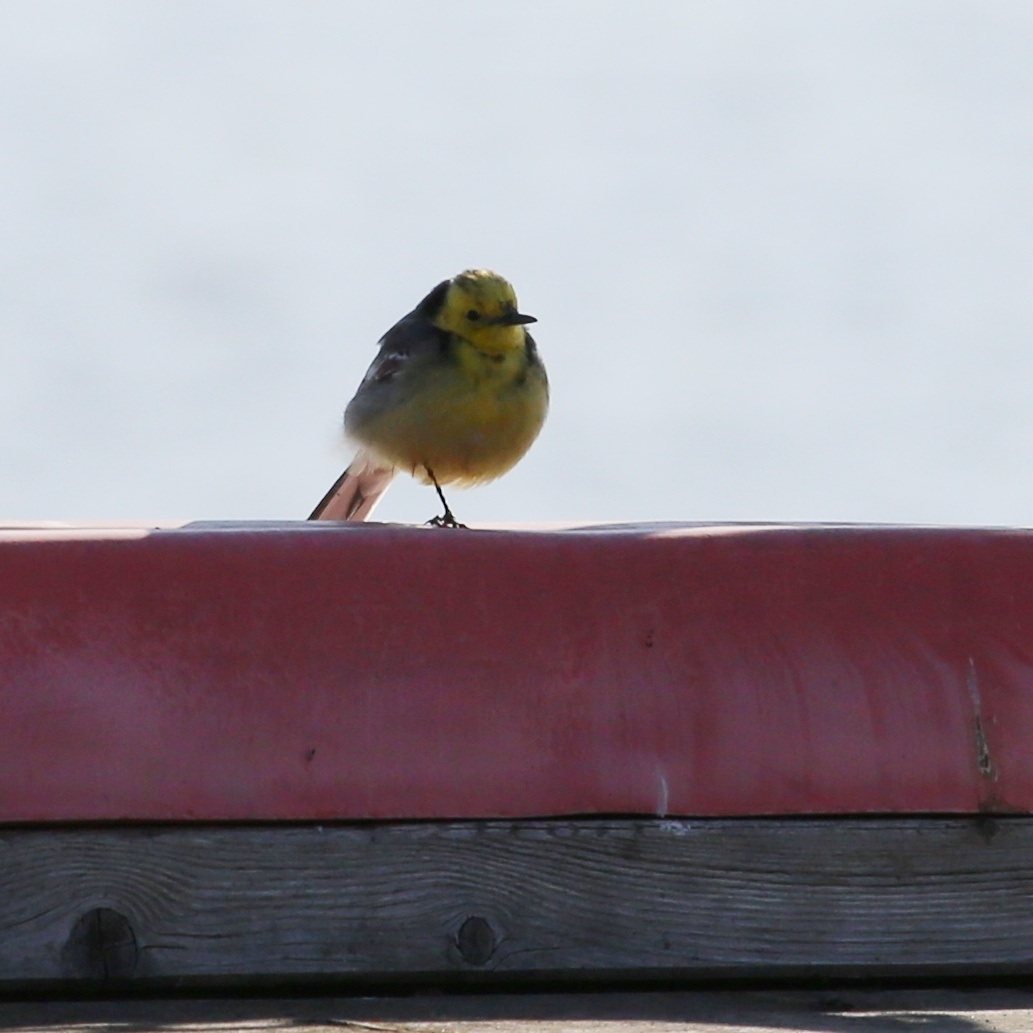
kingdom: Animalia
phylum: Chordata
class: Aves
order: Passeriformes
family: Motacillidae
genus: Motacilla
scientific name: Motacilla citreola
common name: Citrine wagtail
